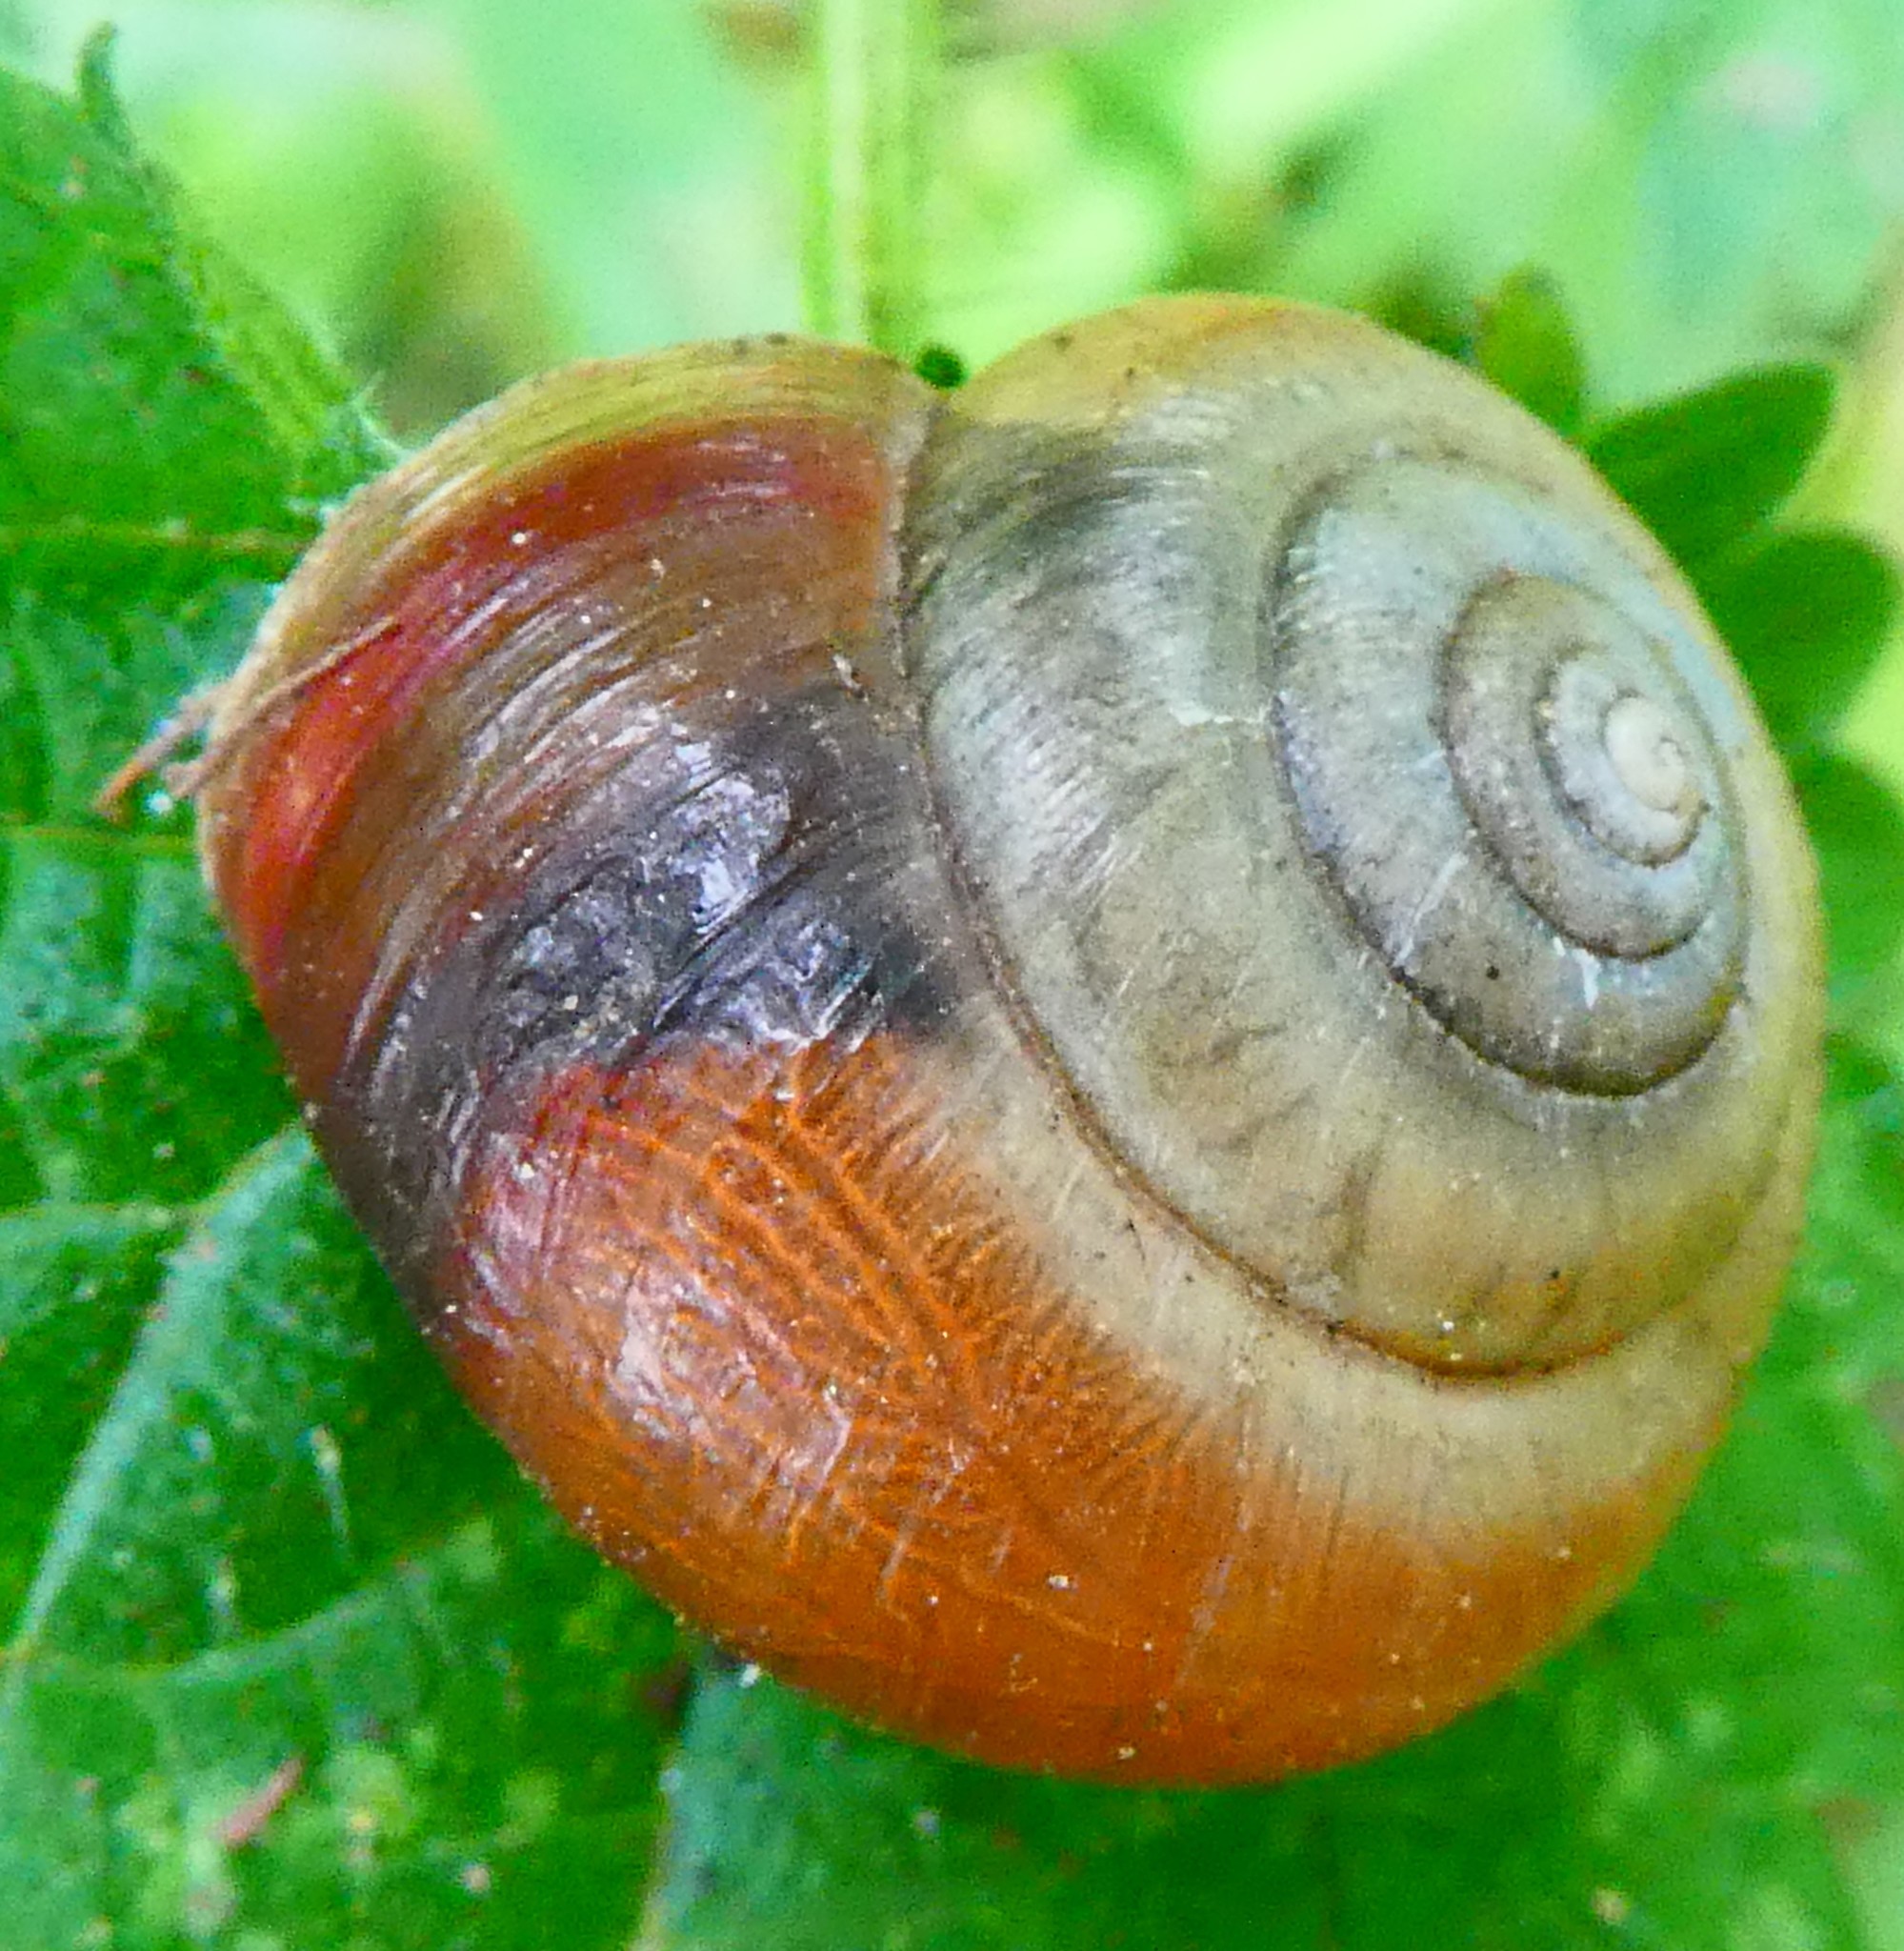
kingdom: Animalia
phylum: Mollusca
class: Gastropoda
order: Stylommatophora
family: Hygromiidae
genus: Monacha
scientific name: Monacha cantiana
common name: Kentish snail
